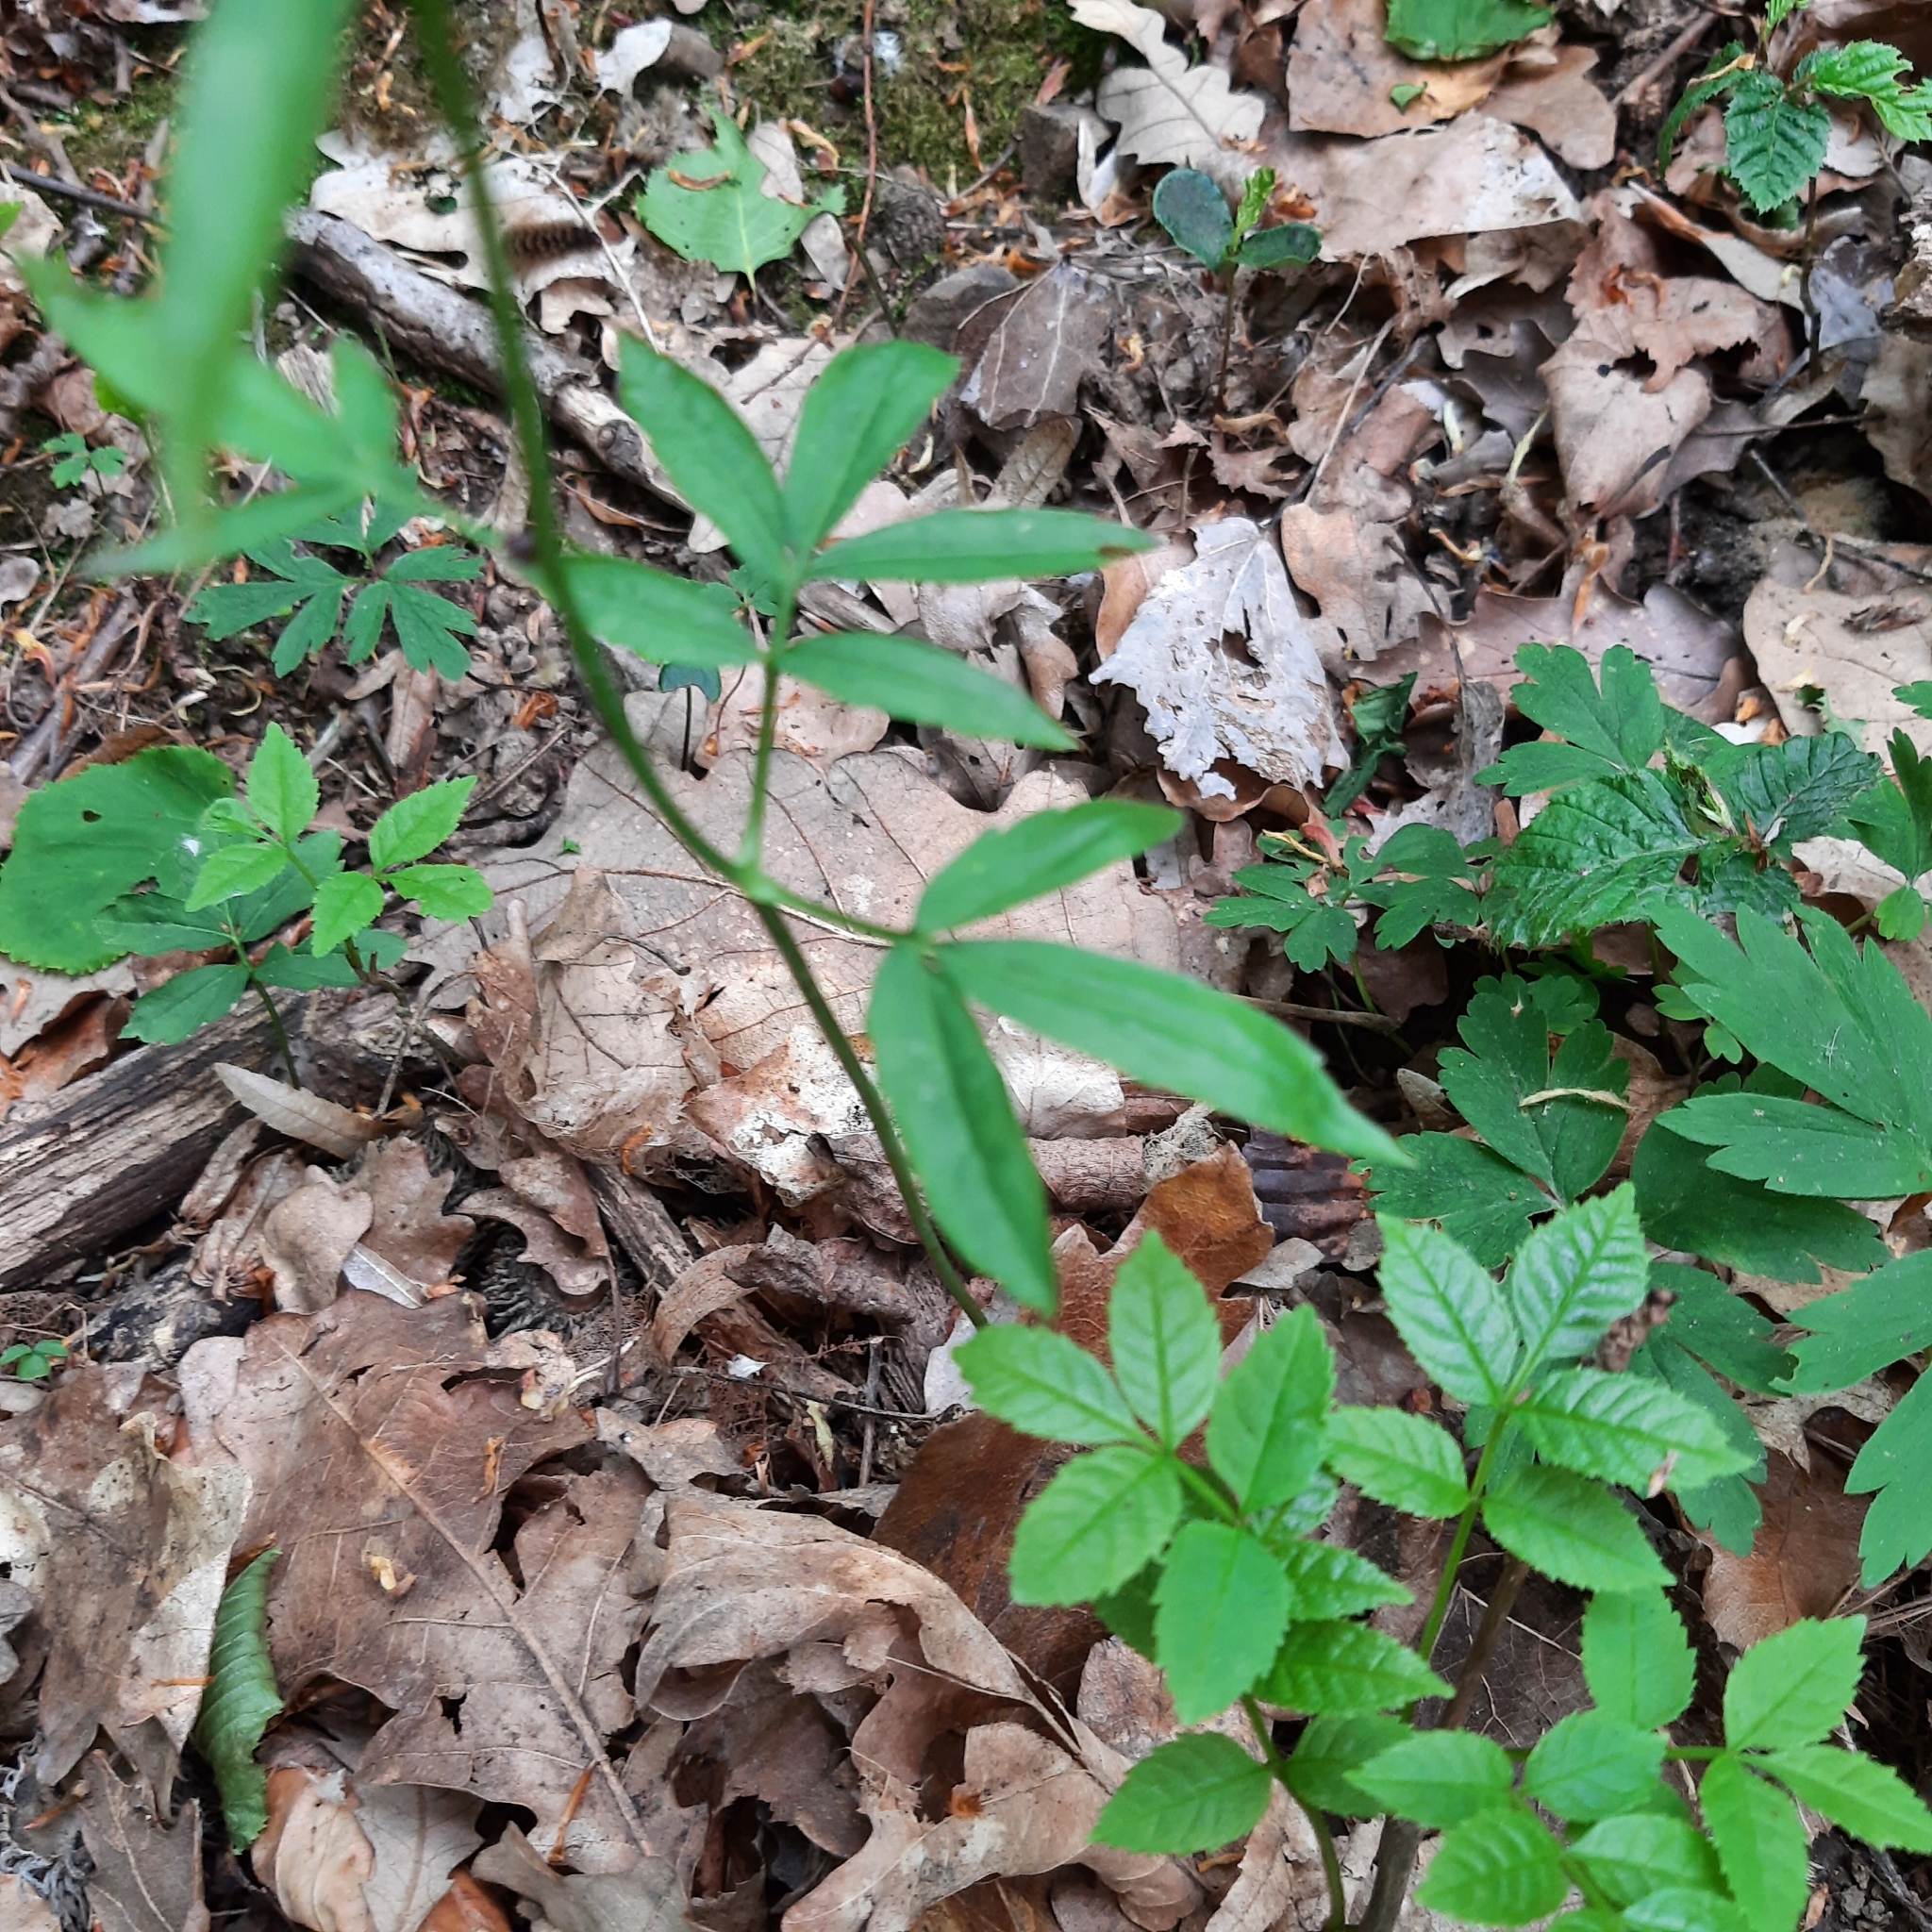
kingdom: Plantae
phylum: Tracheophyta
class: Magnoliopsida
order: Brassicales
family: Brassicaceae
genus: Cardamine
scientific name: Cardamine bulbifera
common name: Coralroot bittercress
